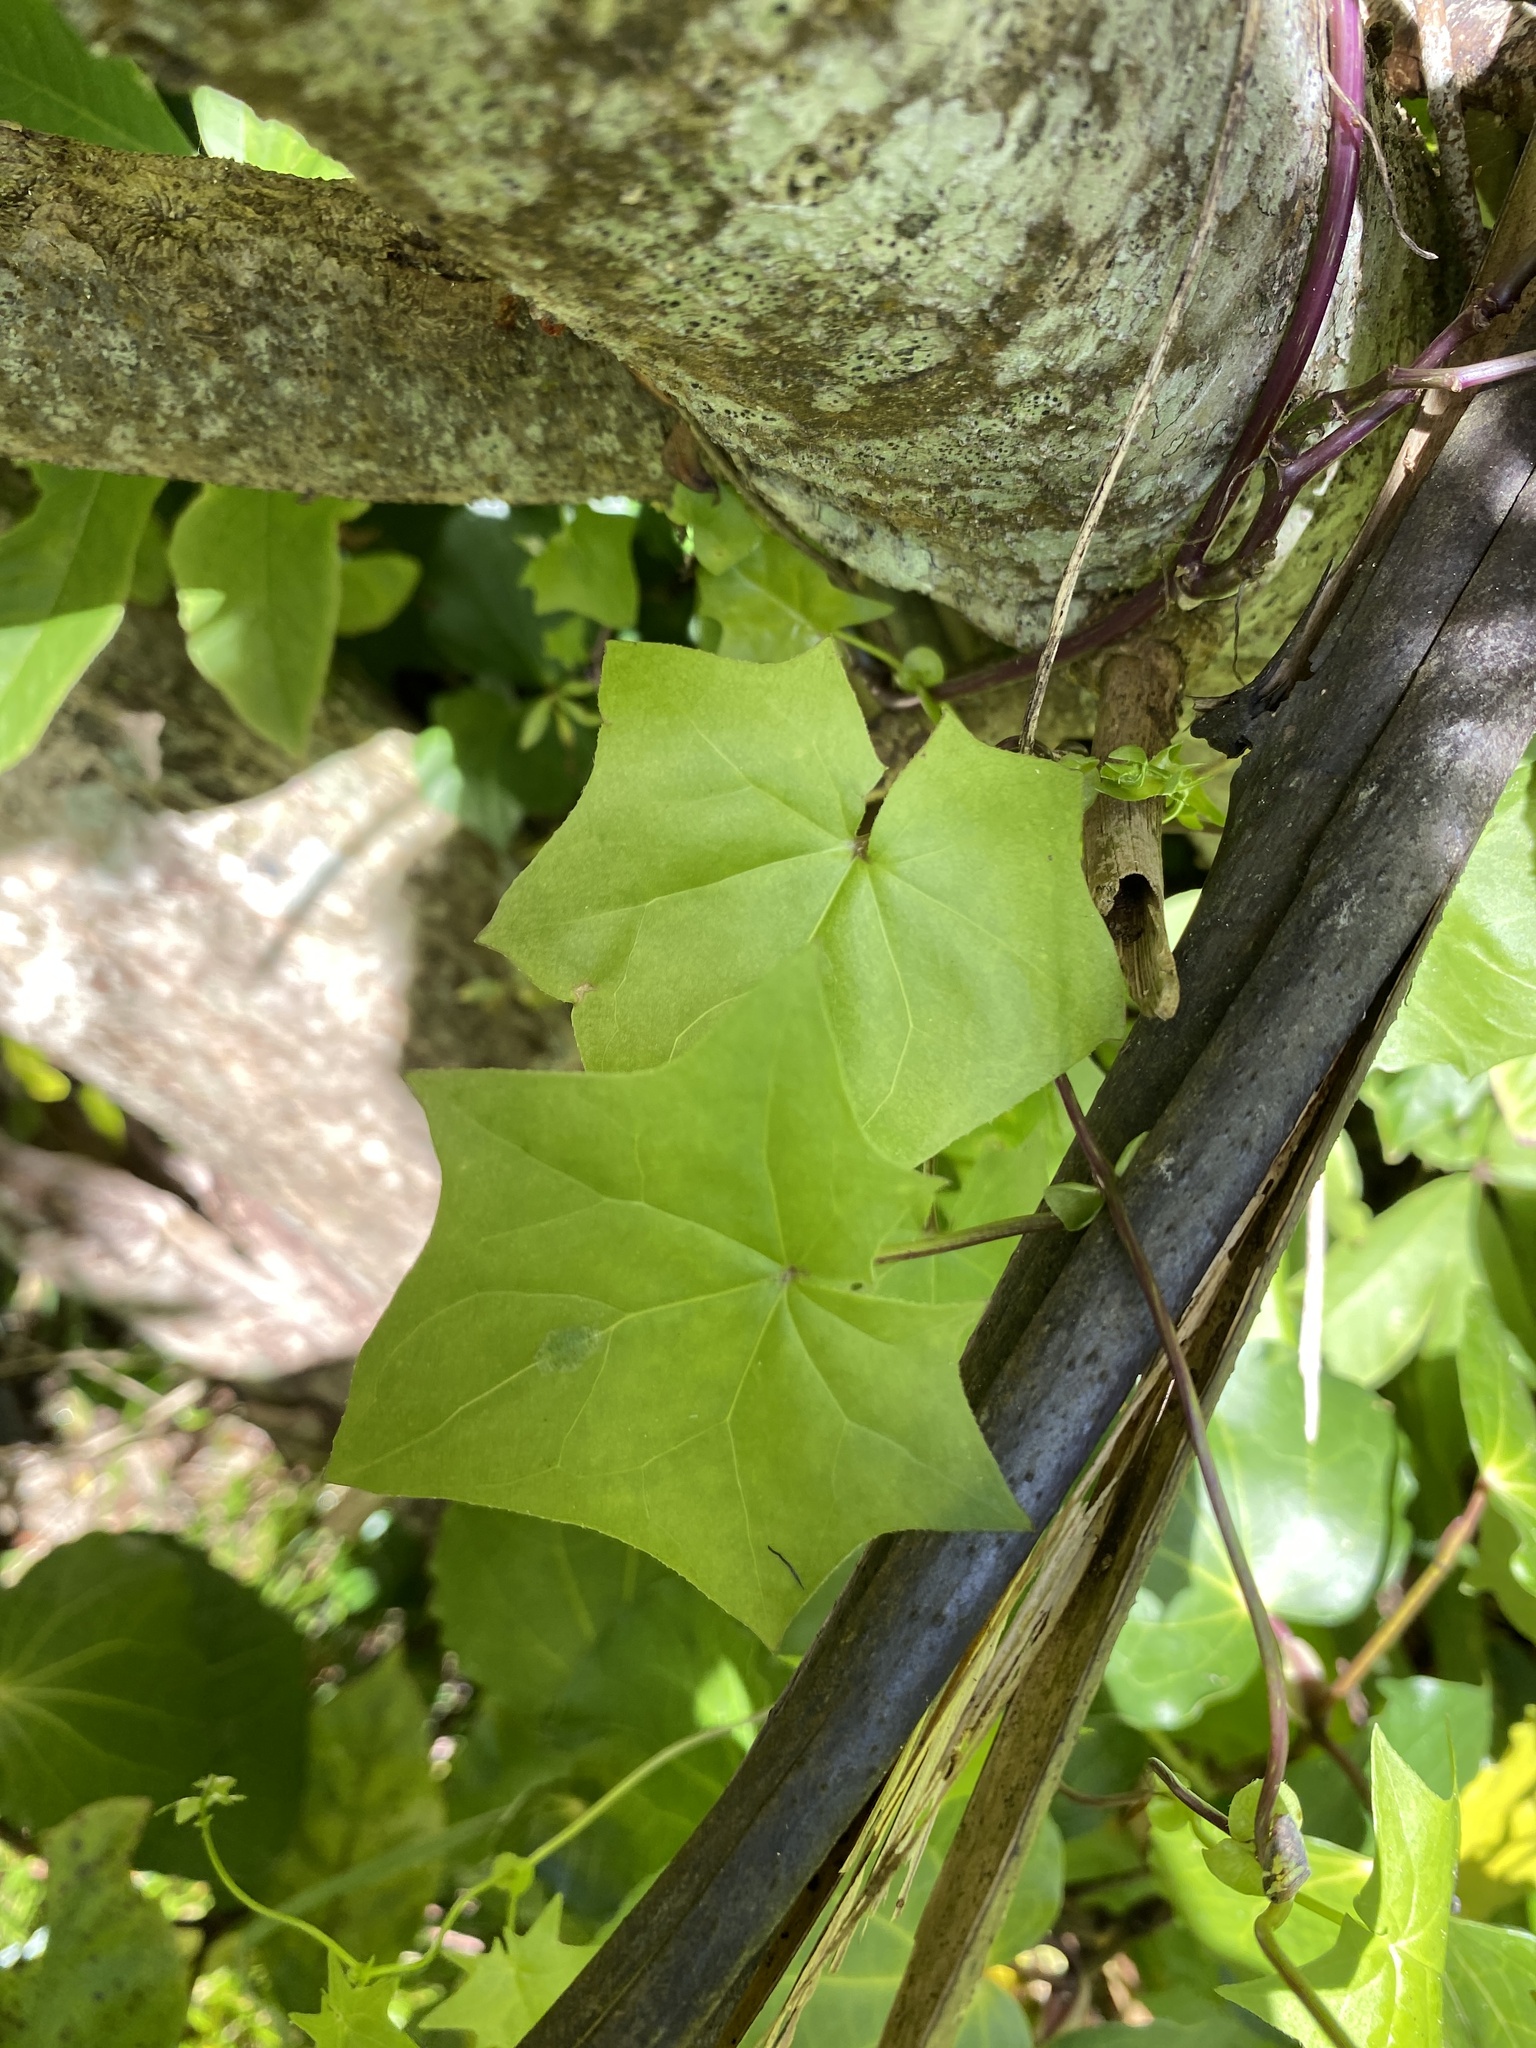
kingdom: Plantae
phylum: Tracheophyta
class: Magnoliopsida
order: Asterales
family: Asteraceae
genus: Delairea
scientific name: Delairea odorata
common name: Cape-ivy
